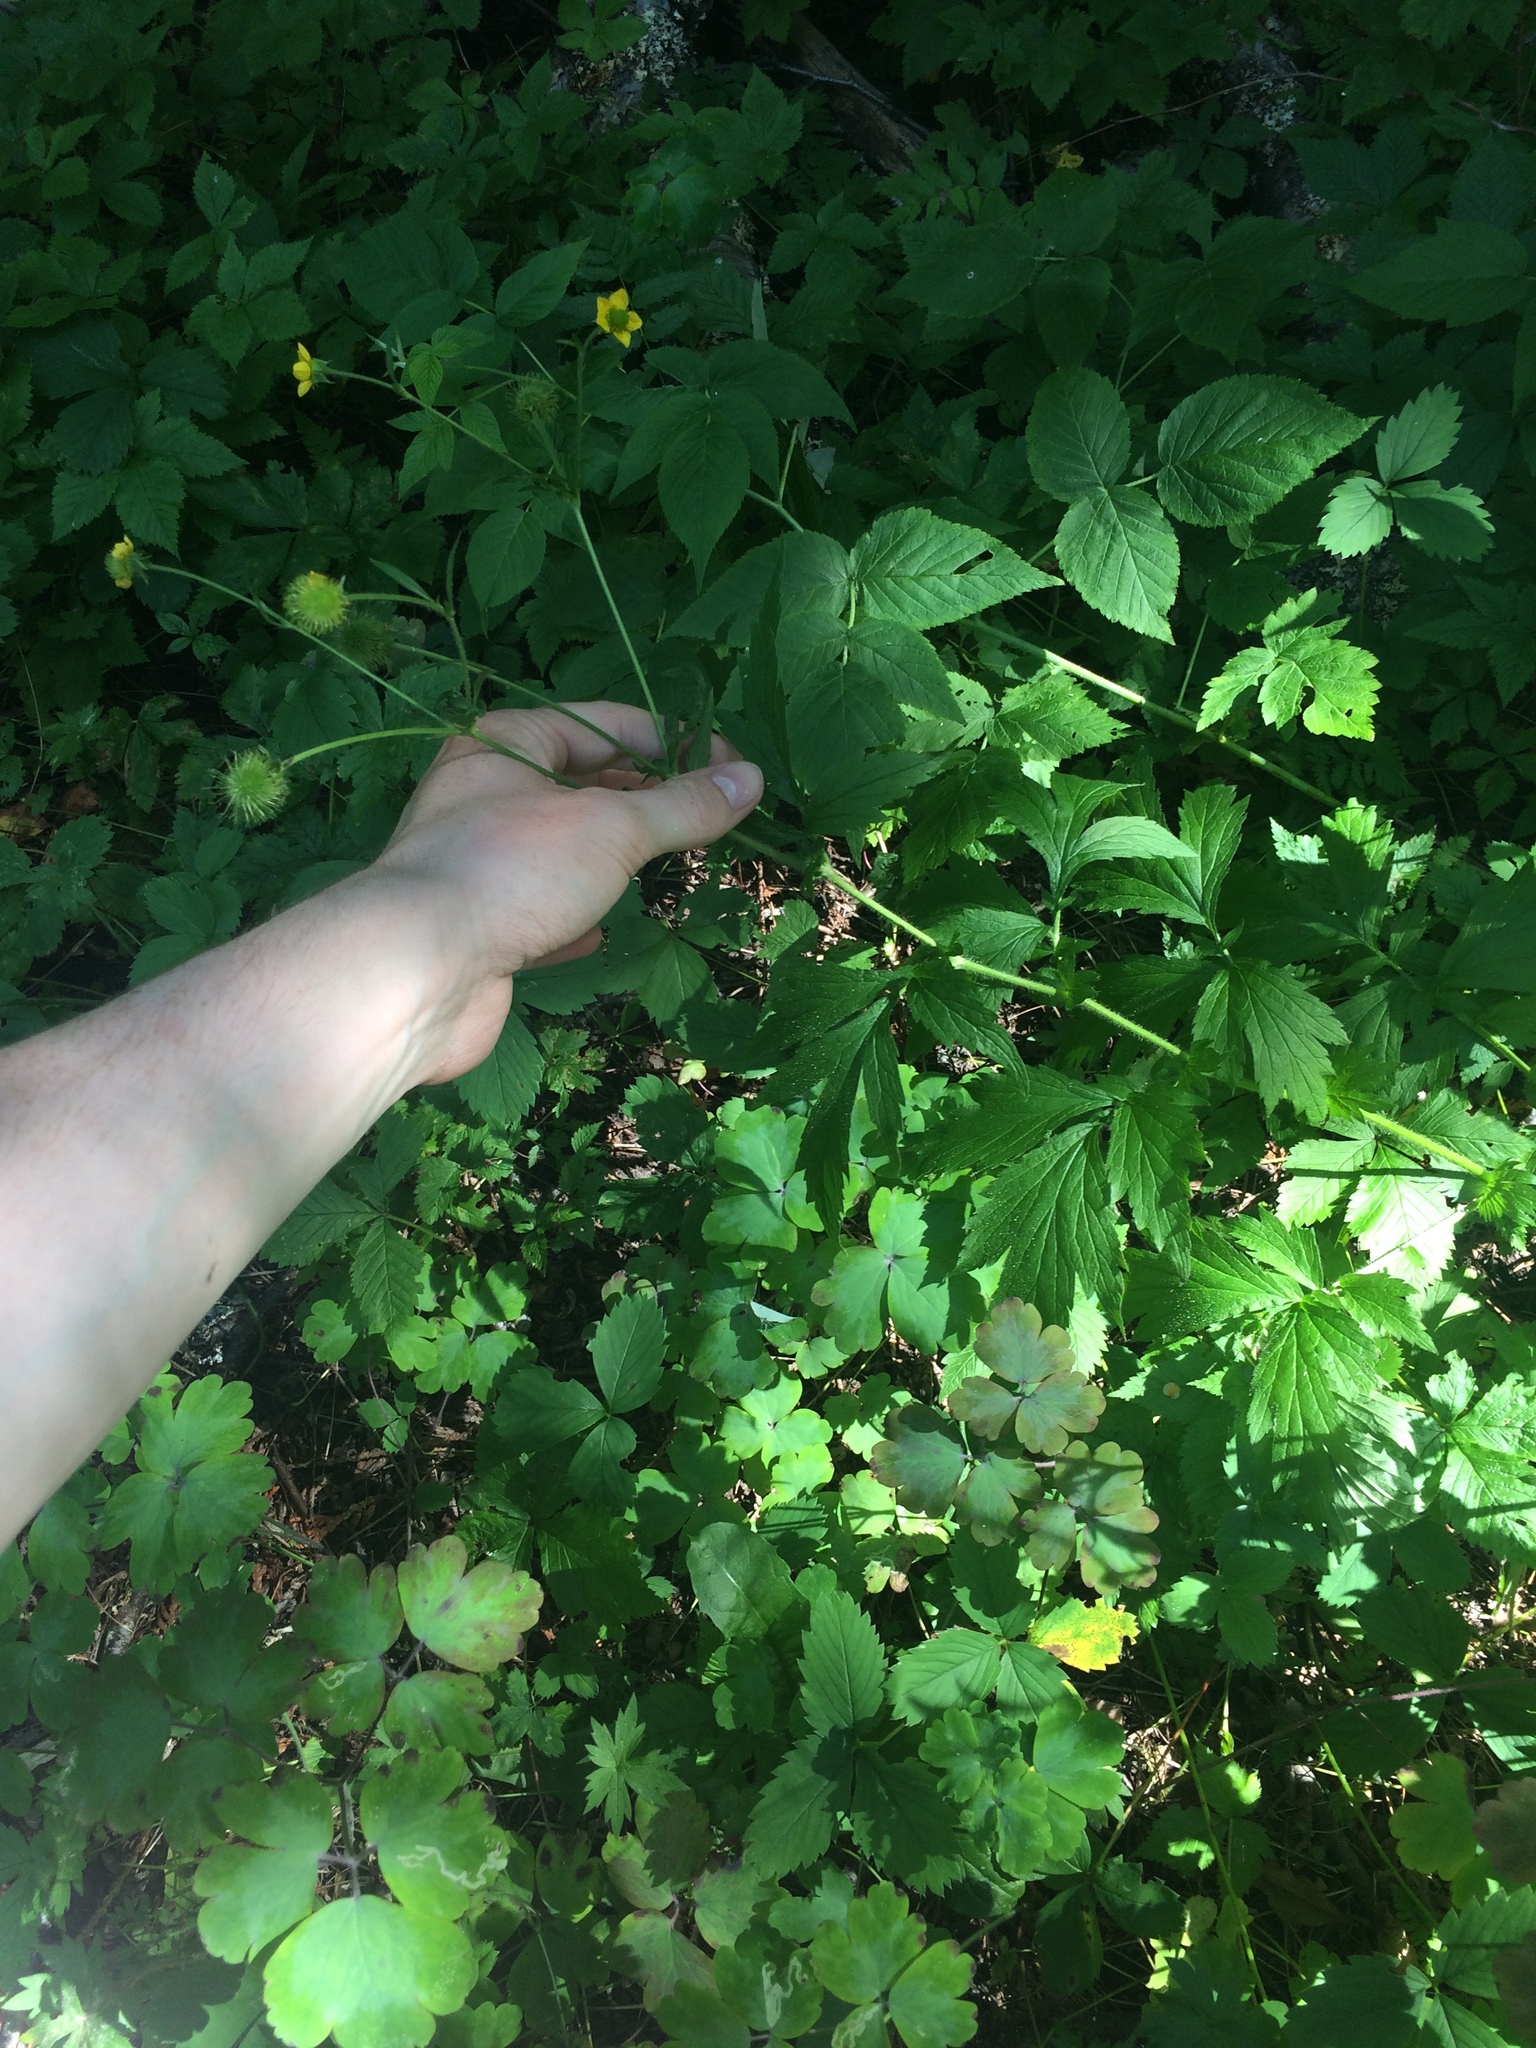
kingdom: Plantae
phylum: Tracheophyta
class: Magnoliopsida
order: Rosales
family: Rosaceae
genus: Geum
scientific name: Geum aleppicum
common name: Yellow avens
